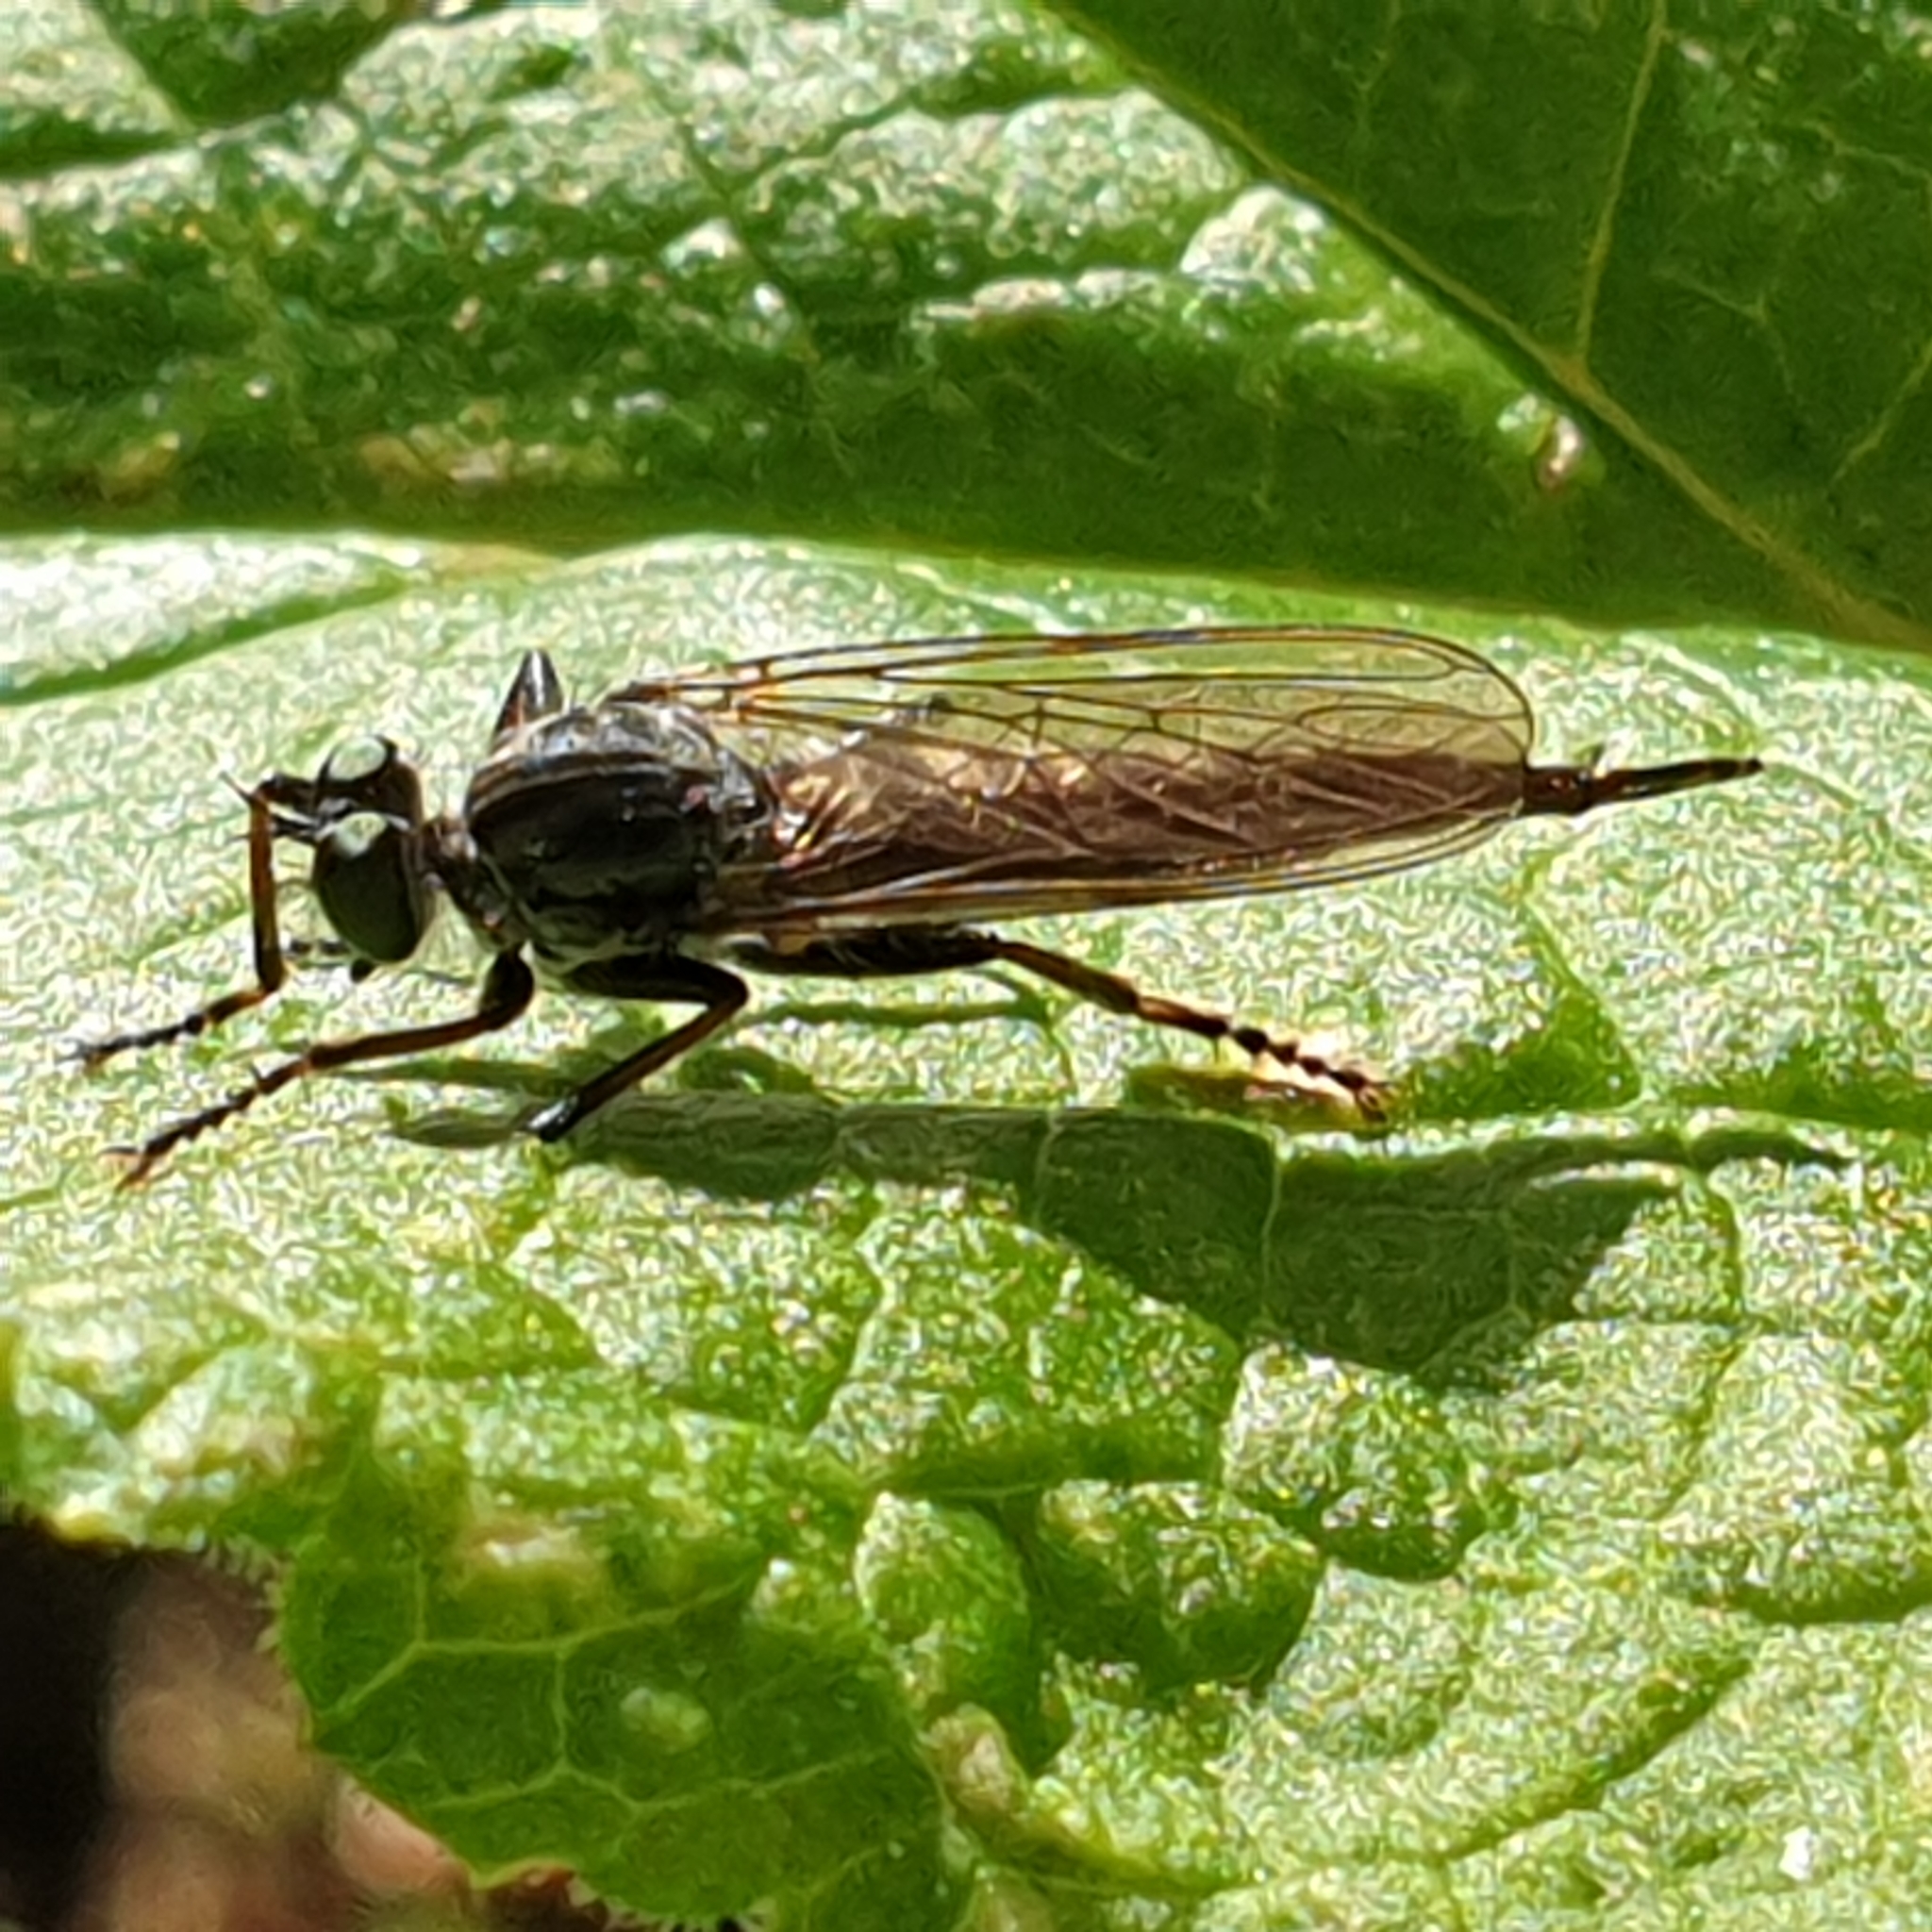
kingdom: Animalia
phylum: Arthropoda
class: Insecta
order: Diptera
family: Asilidae
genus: Neoitamus
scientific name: Neoitamus socius
